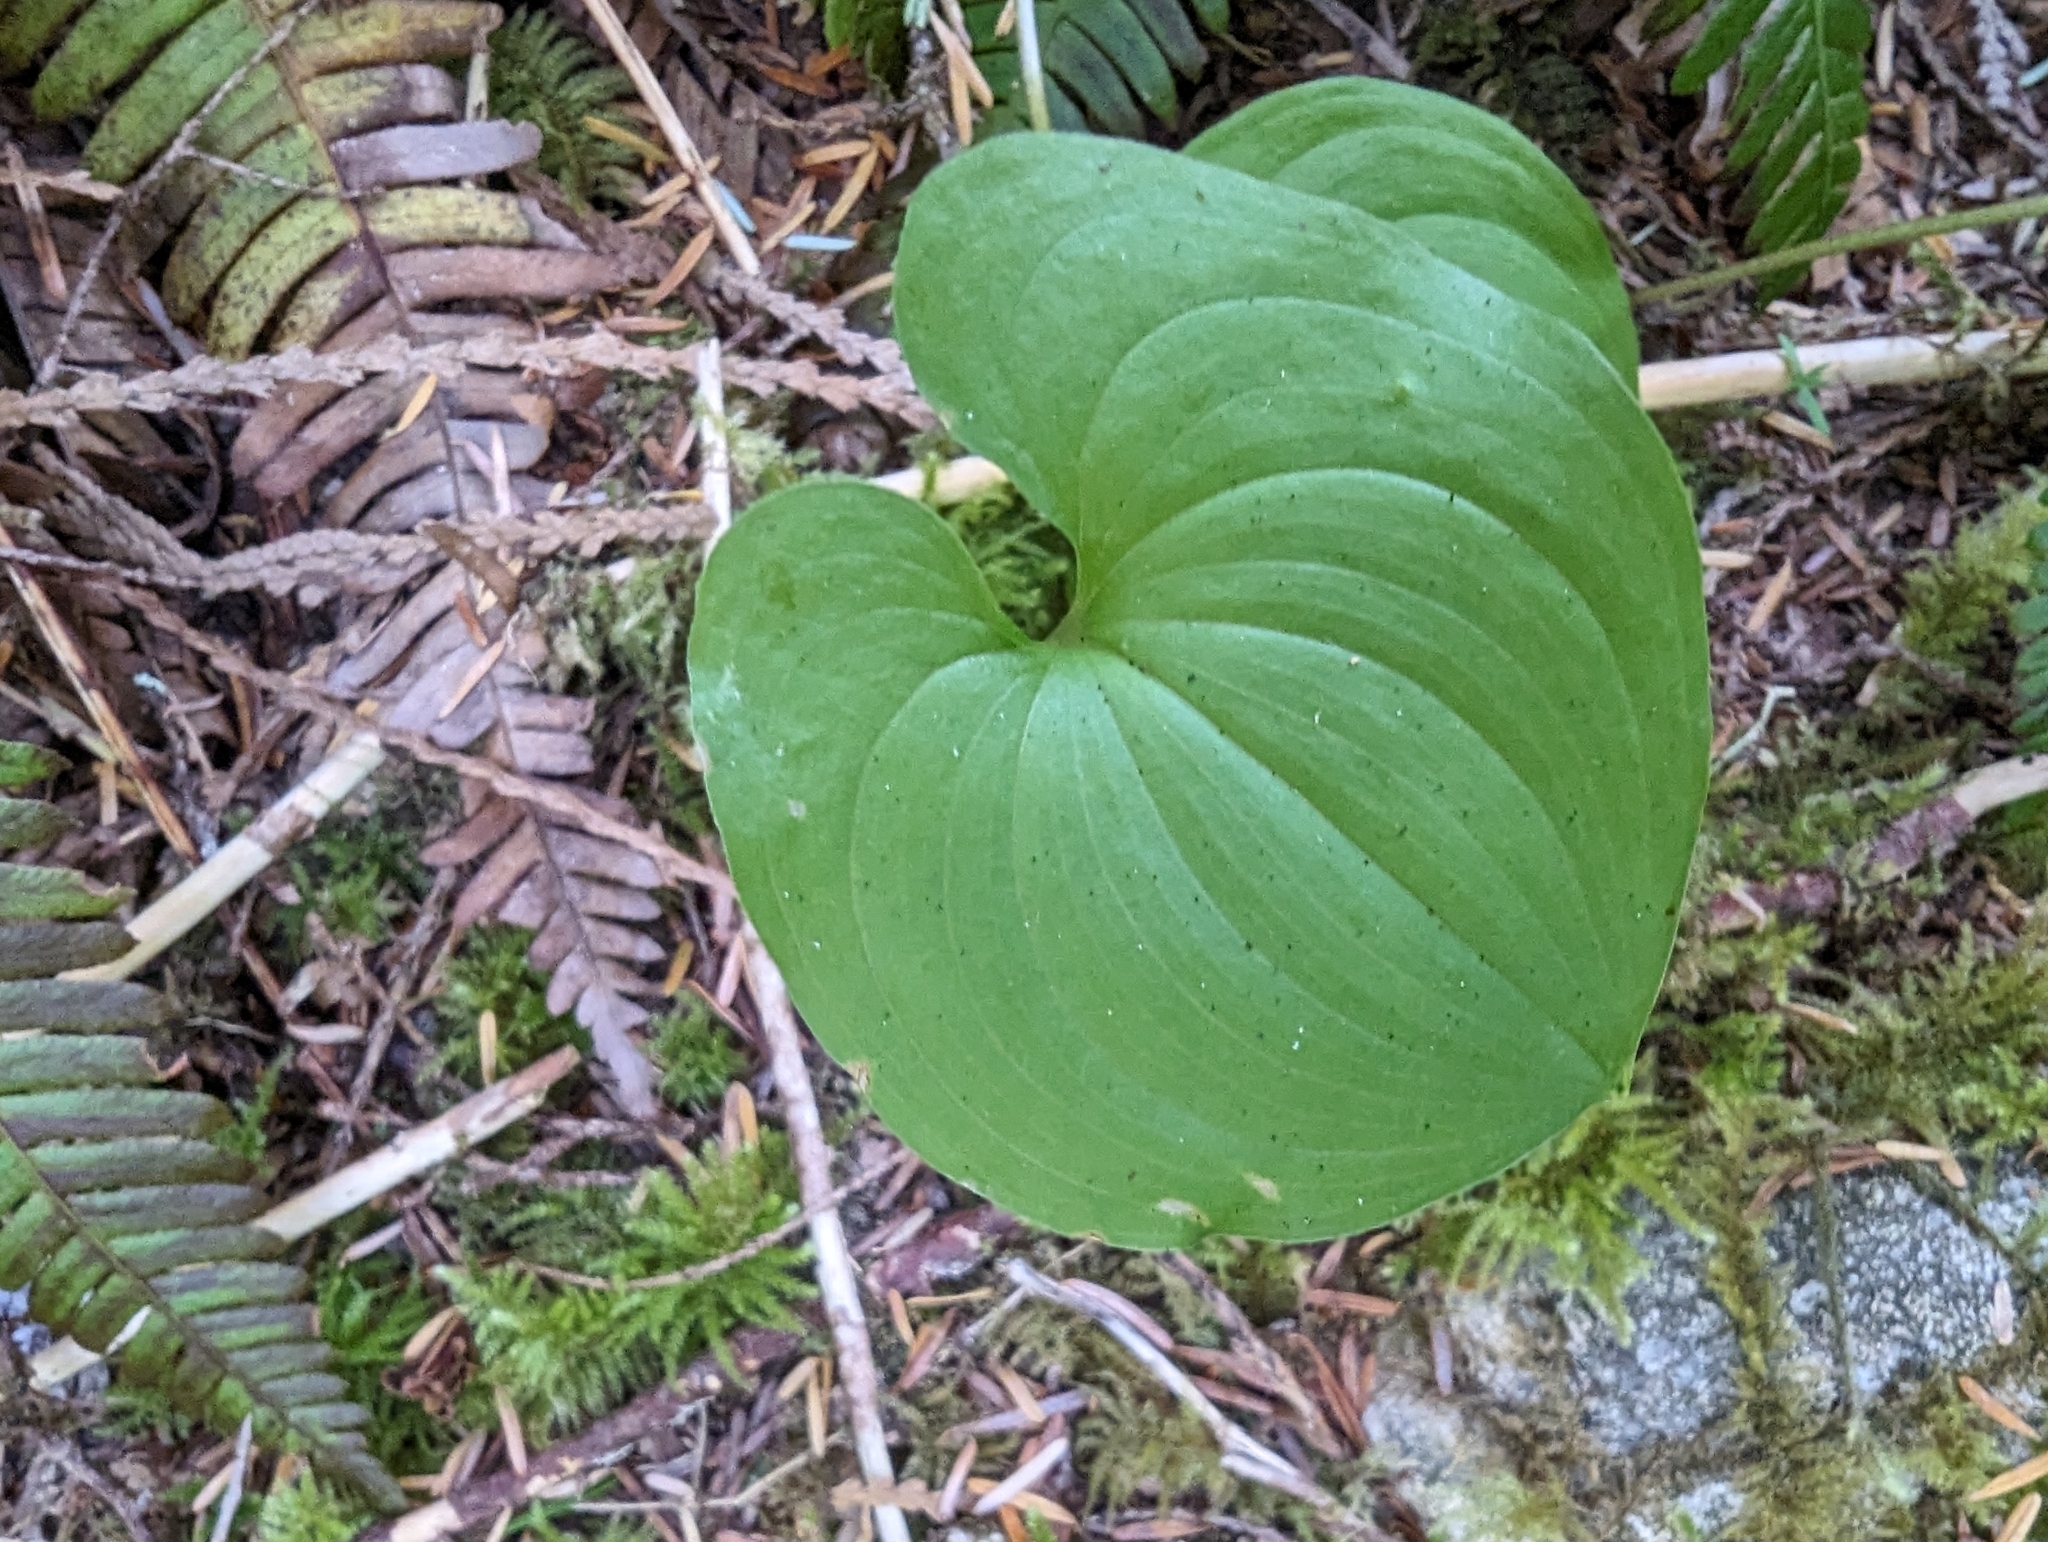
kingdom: Plantae
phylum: Tracheophyta
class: Liliopsida
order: Asparagales
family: Asparagaceae
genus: Maianthemum
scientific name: Maianthemum dilatatum
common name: False lily-of-the-valley
